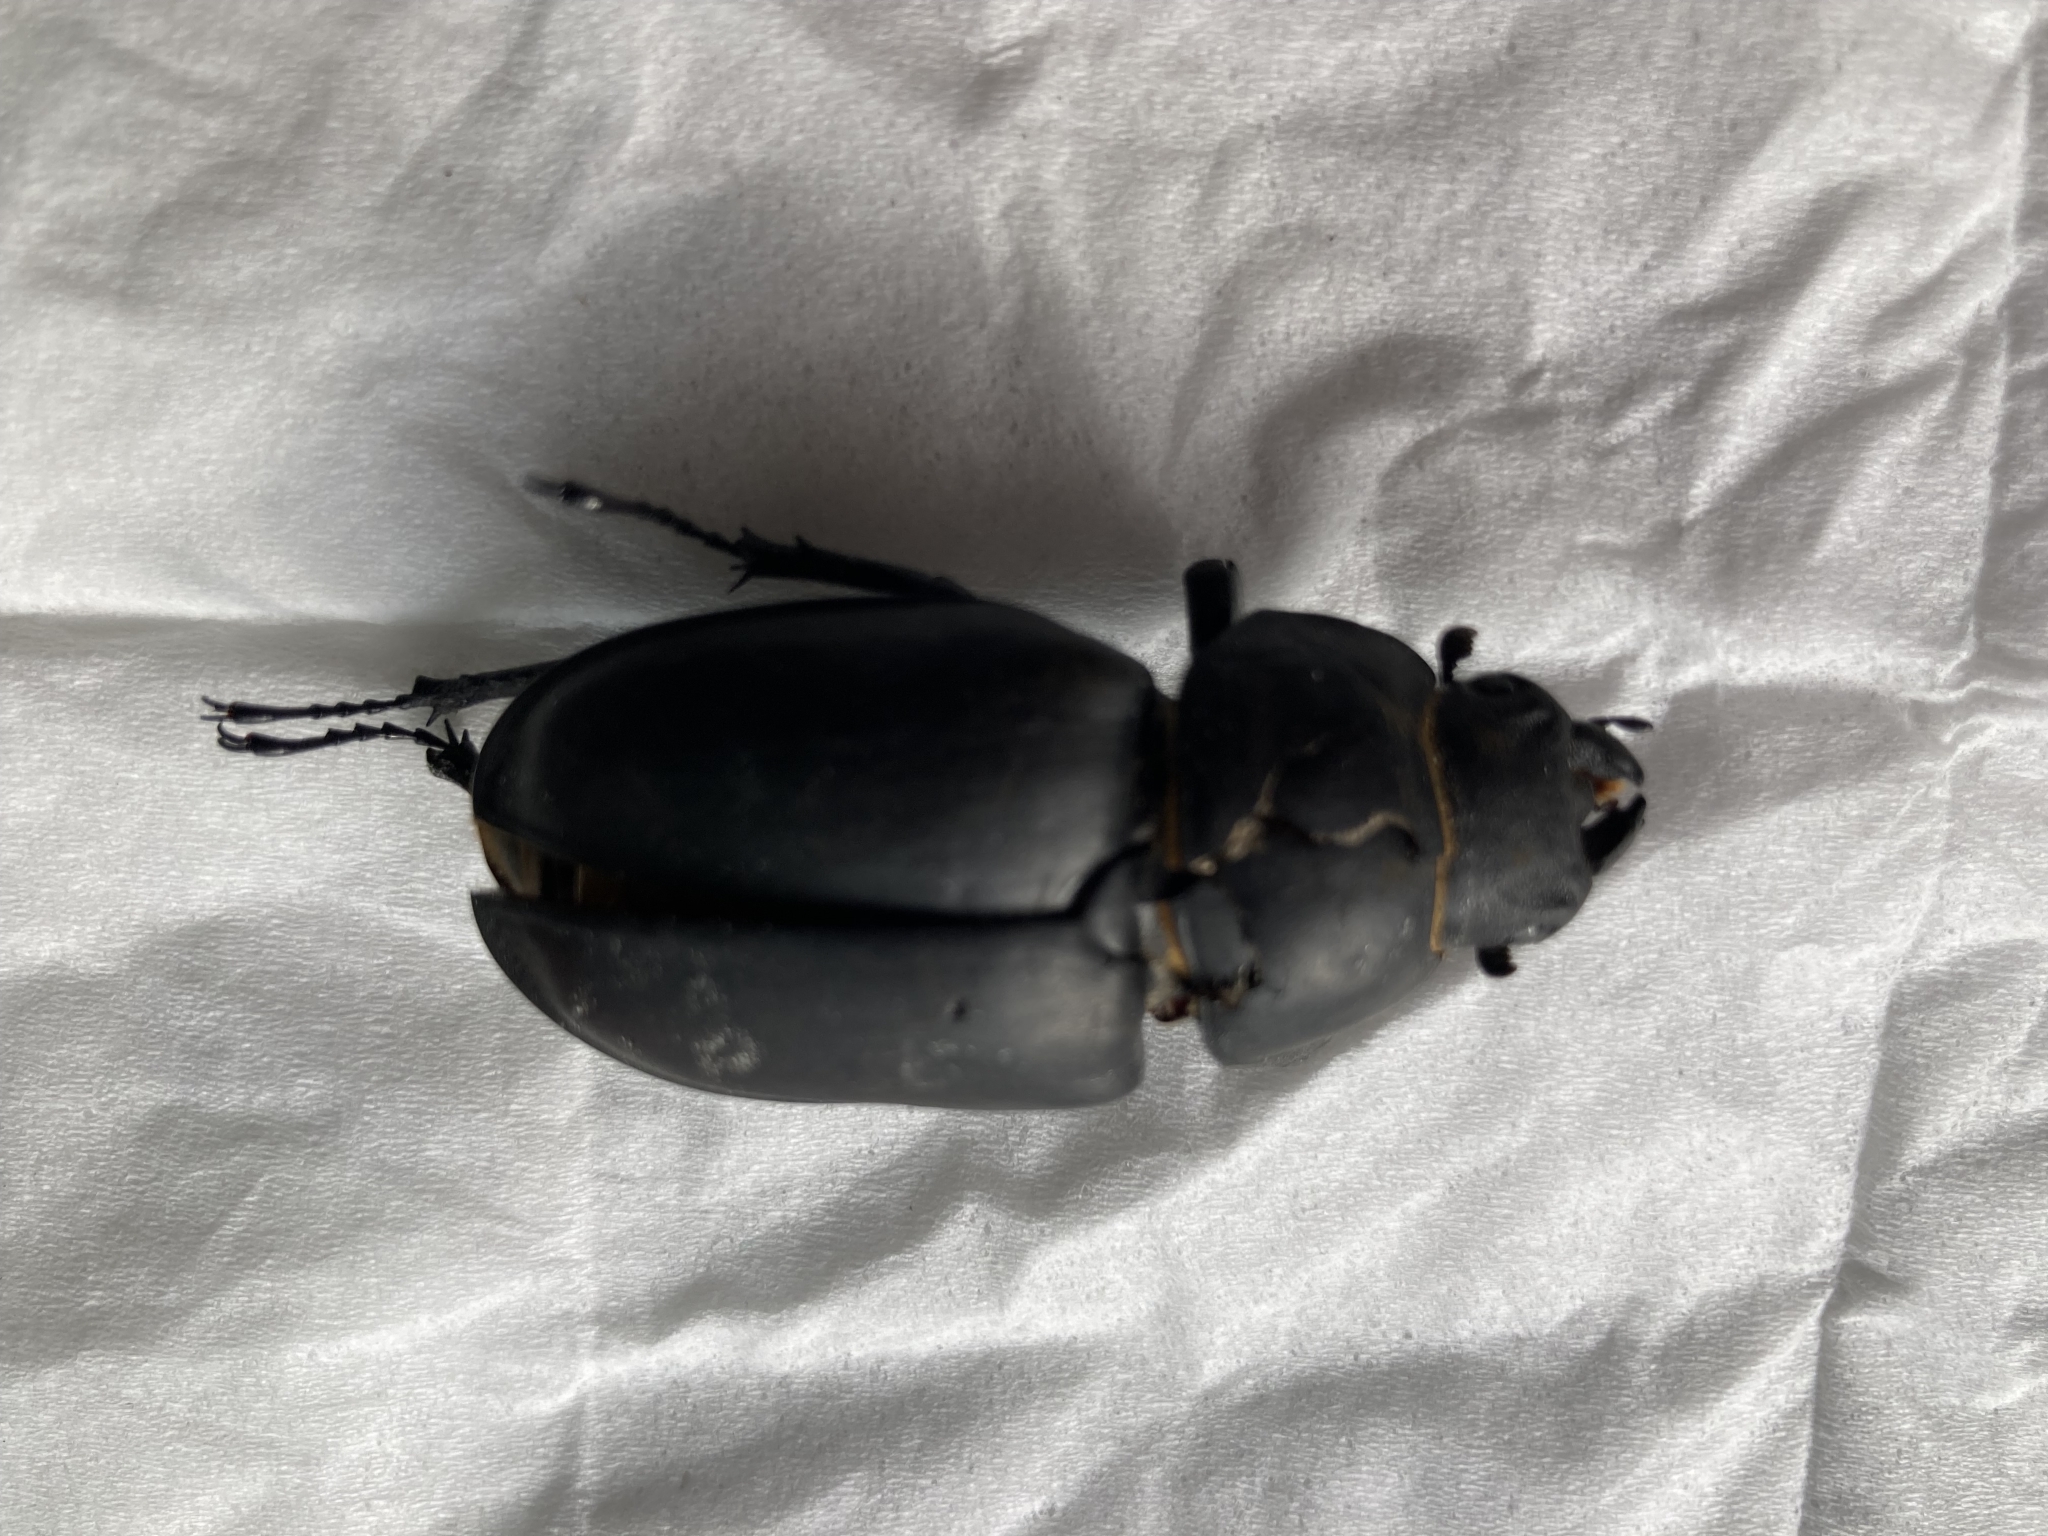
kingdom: Animalia
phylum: Arthropoda
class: Insecta
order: Coleoptera
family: Lucanidae
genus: Lucanus
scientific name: Lucanus cervus
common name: Stag beetle
